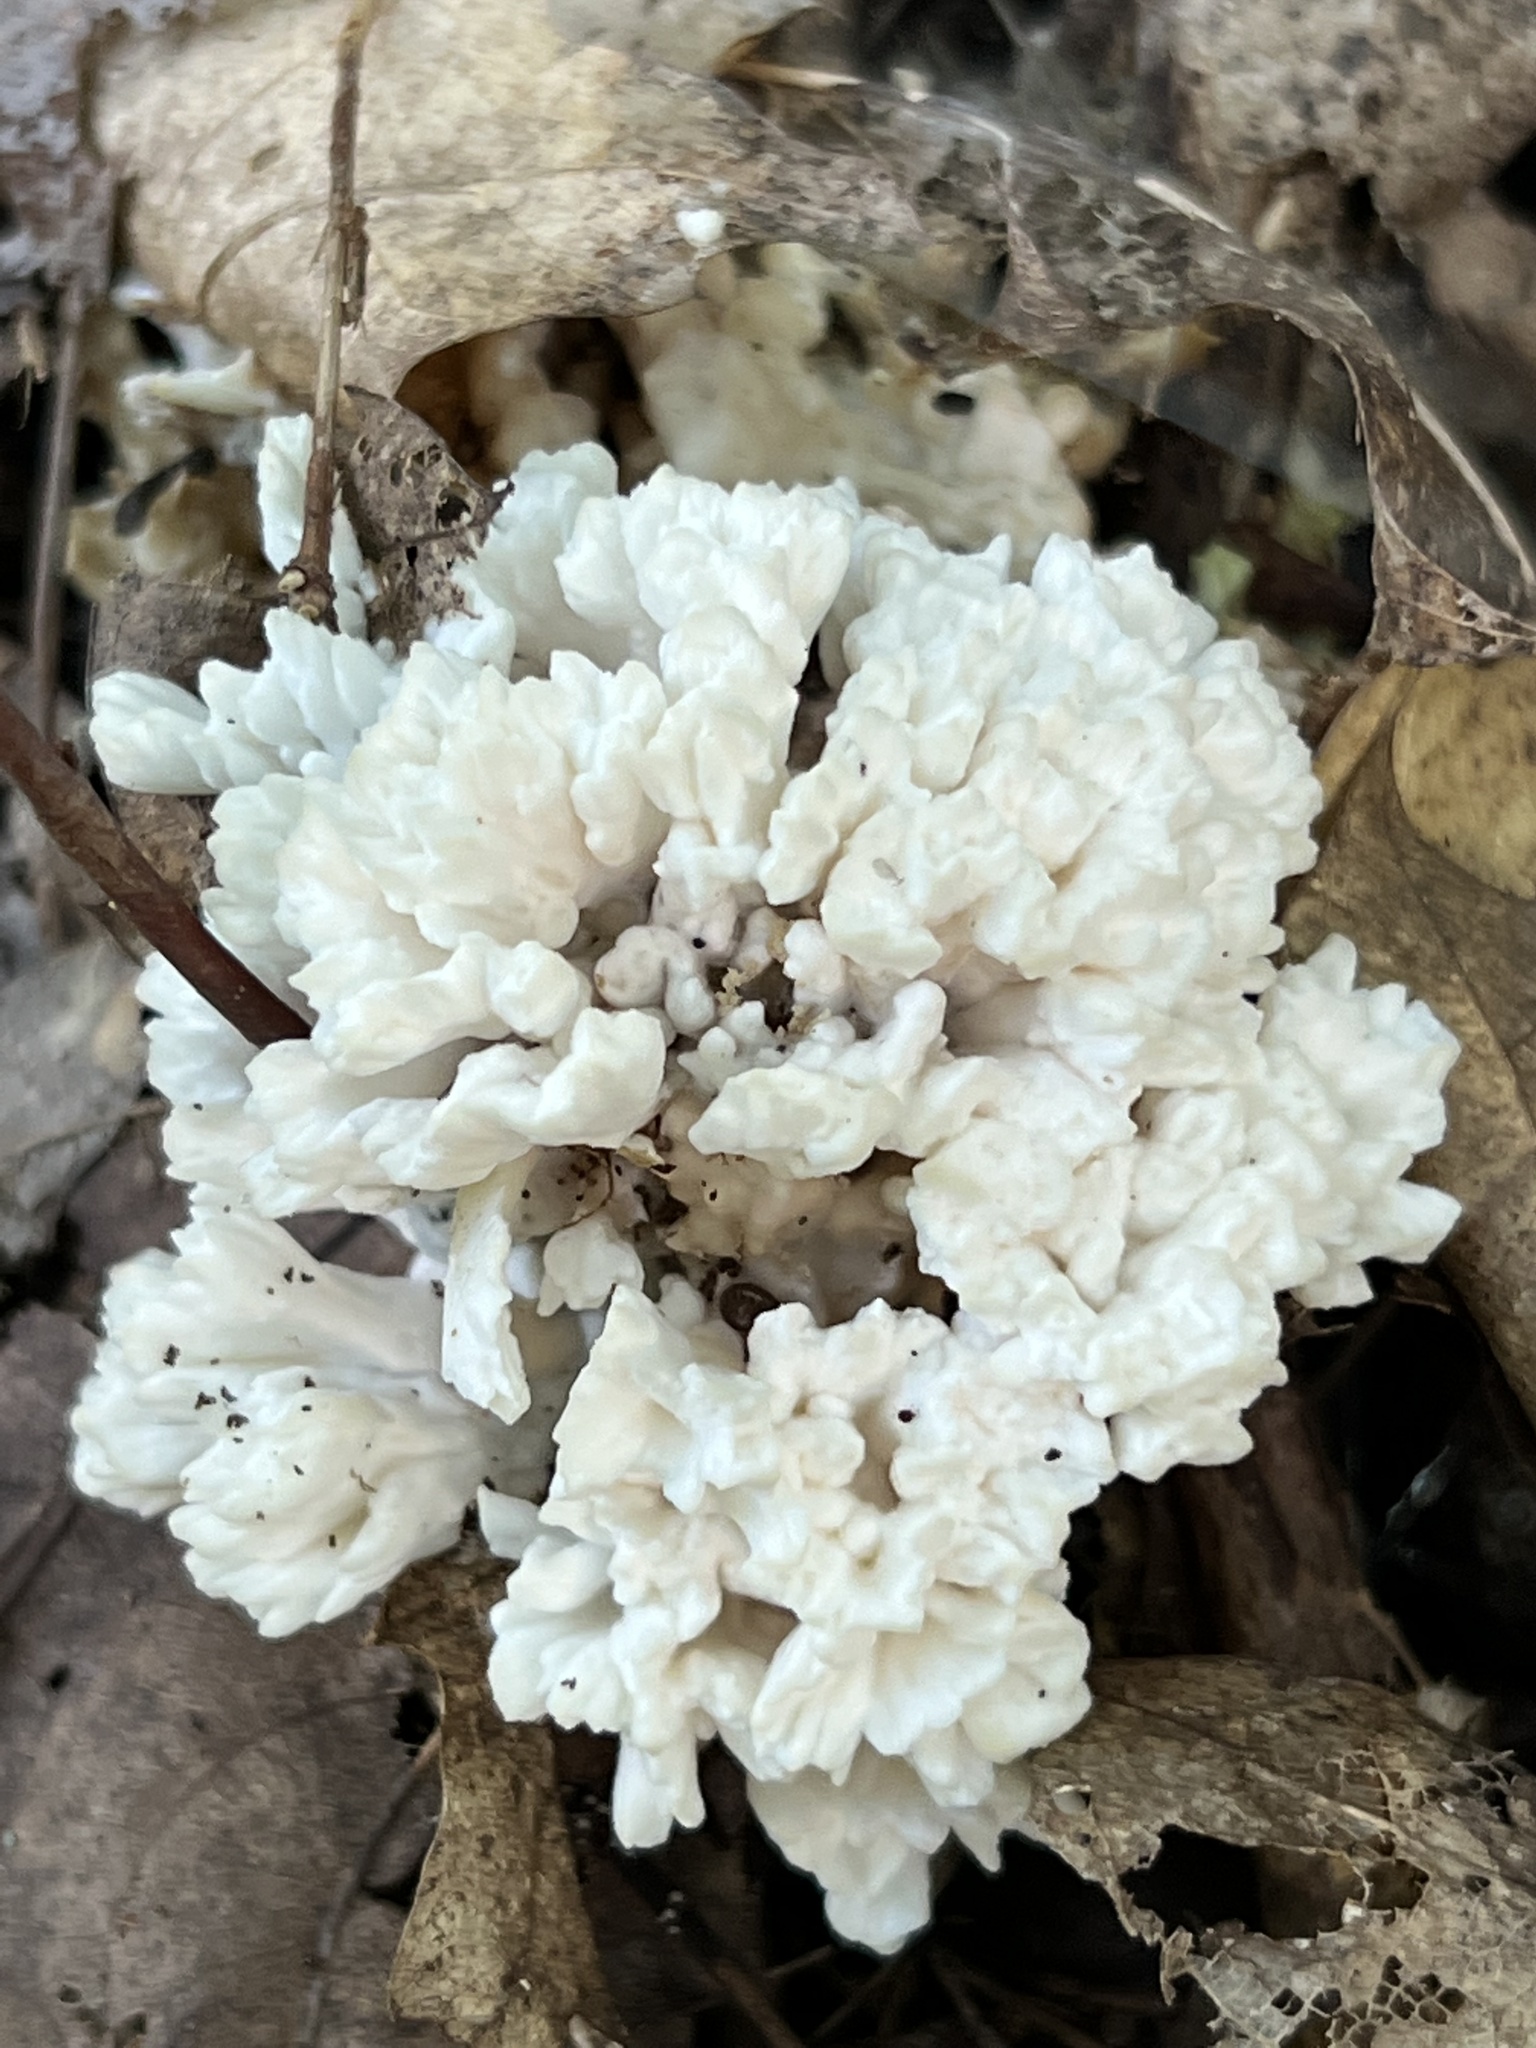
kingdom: Fungi
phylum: Basidiomycota
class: Agaricomycetes
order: Sebacinales
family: Sebacinaceae
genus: Sebacina
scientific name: Sebacina schweinitzii
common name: Jellied false coral fungus
